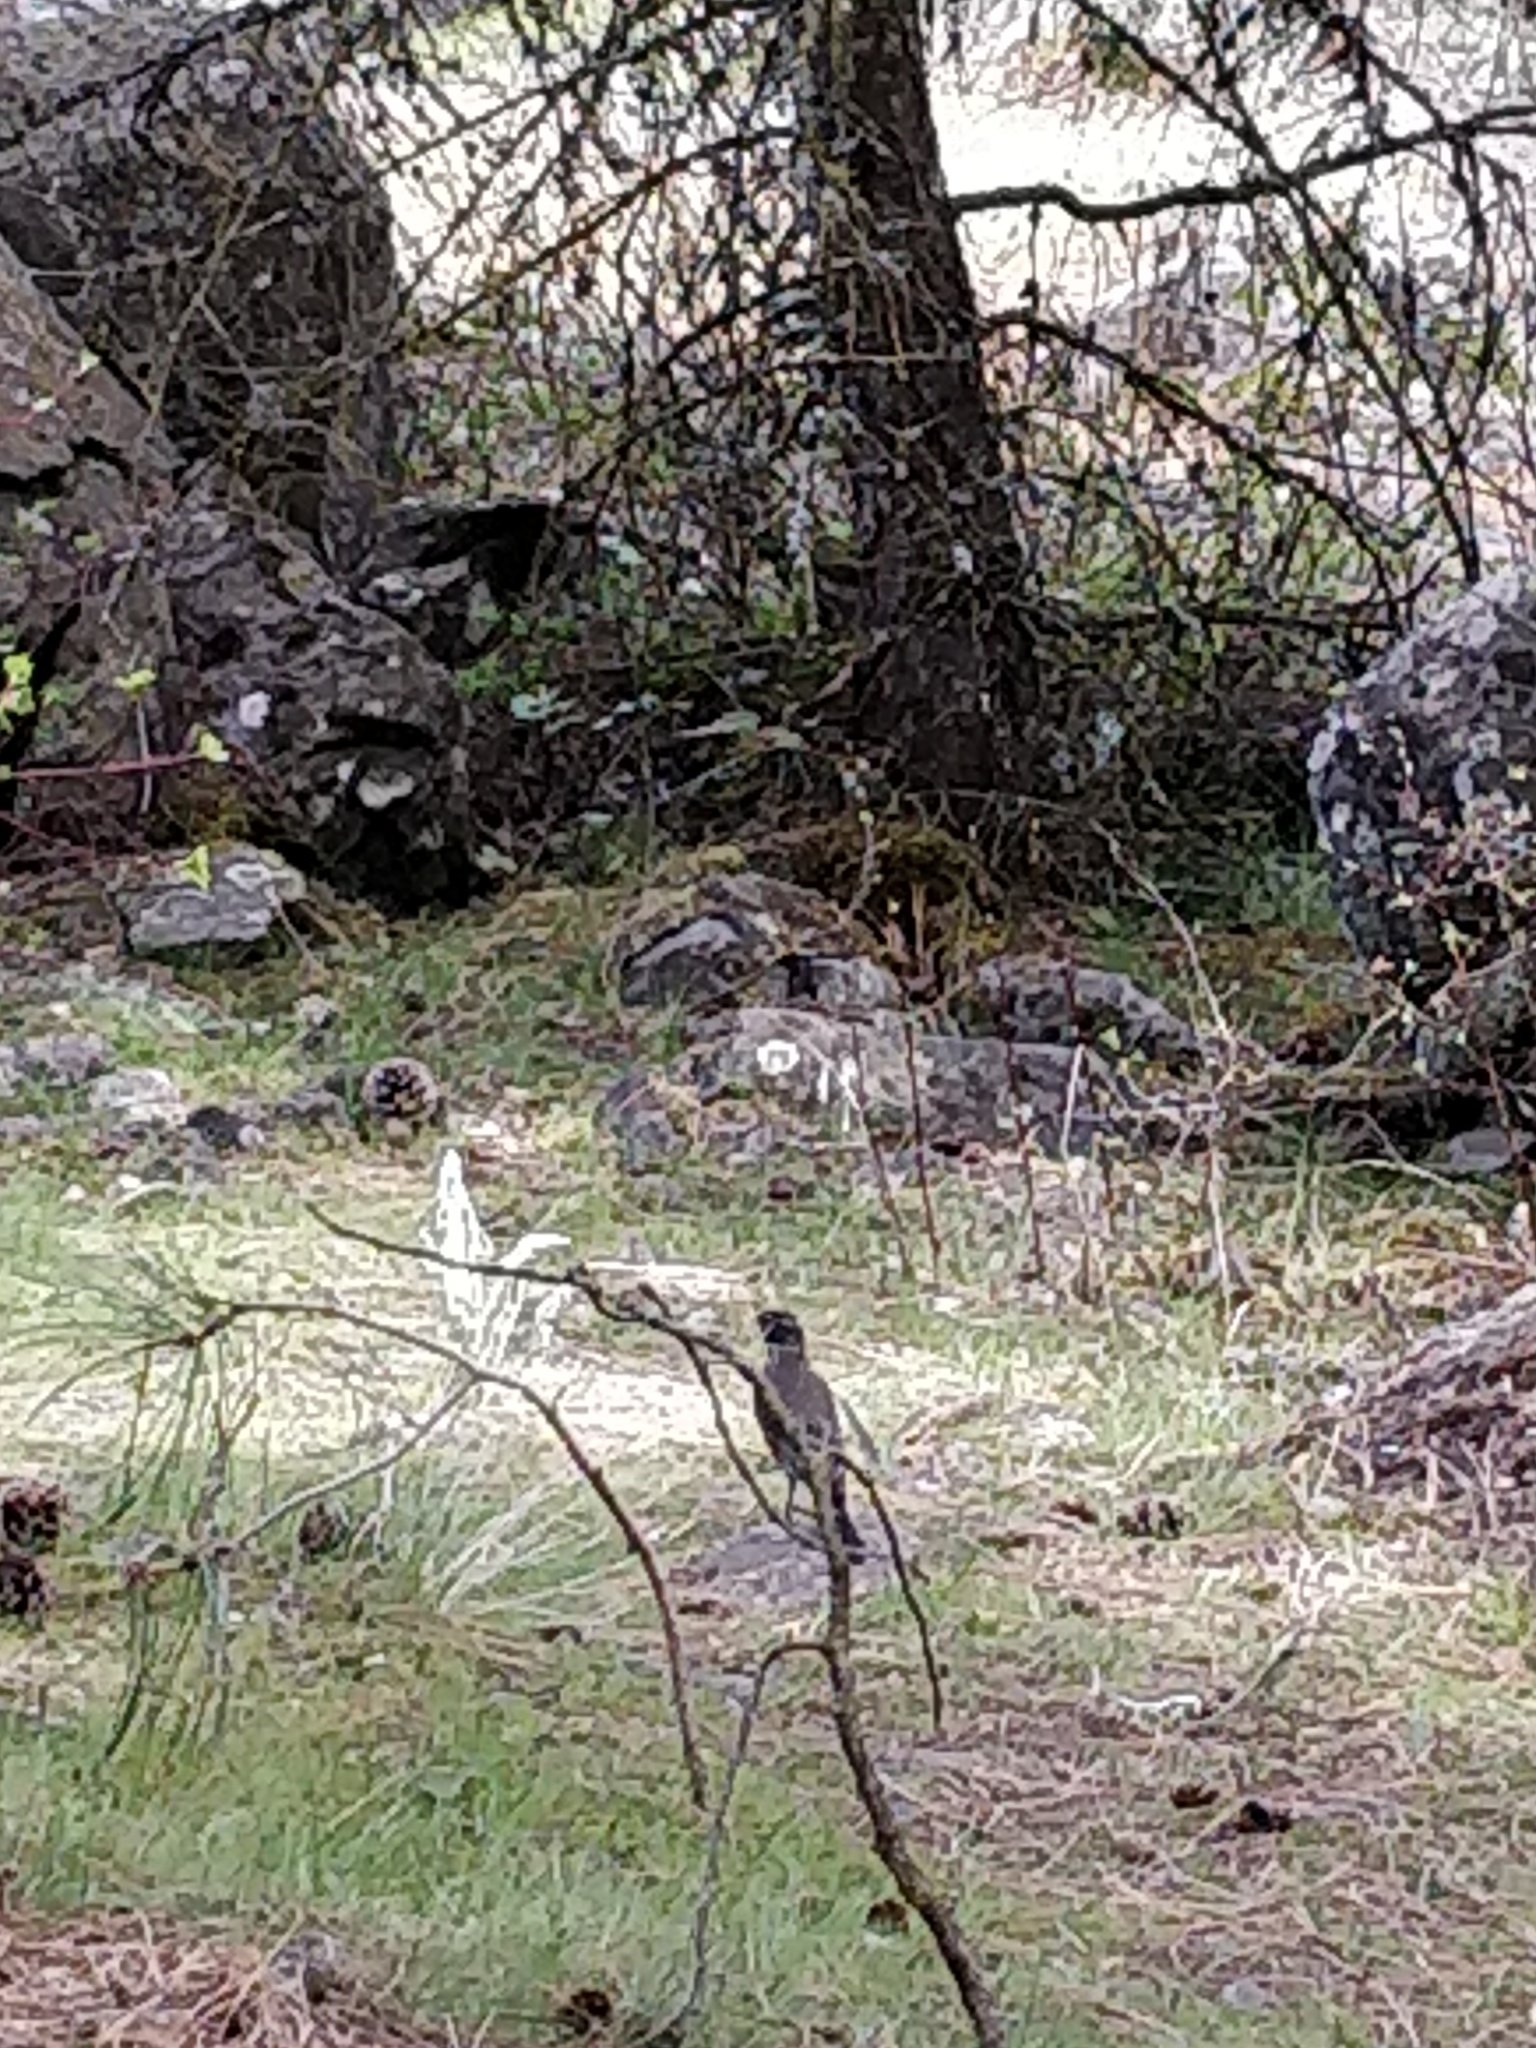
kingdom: Animalia
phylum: Chordata
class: Aves
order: Passeriformes
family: Turdidae
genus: Turdus
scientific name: Turdus migratorius
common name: American robin
